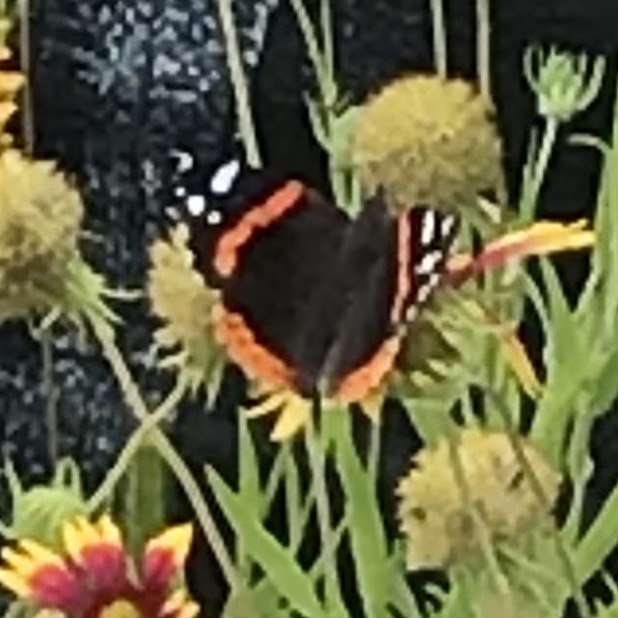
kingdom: Animalia
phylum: Arthropoda
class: Insecta
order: Lepidoptera
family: Nymphalidae
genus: Vanessa
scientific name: Vanessa atalanta
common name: Red admiral
